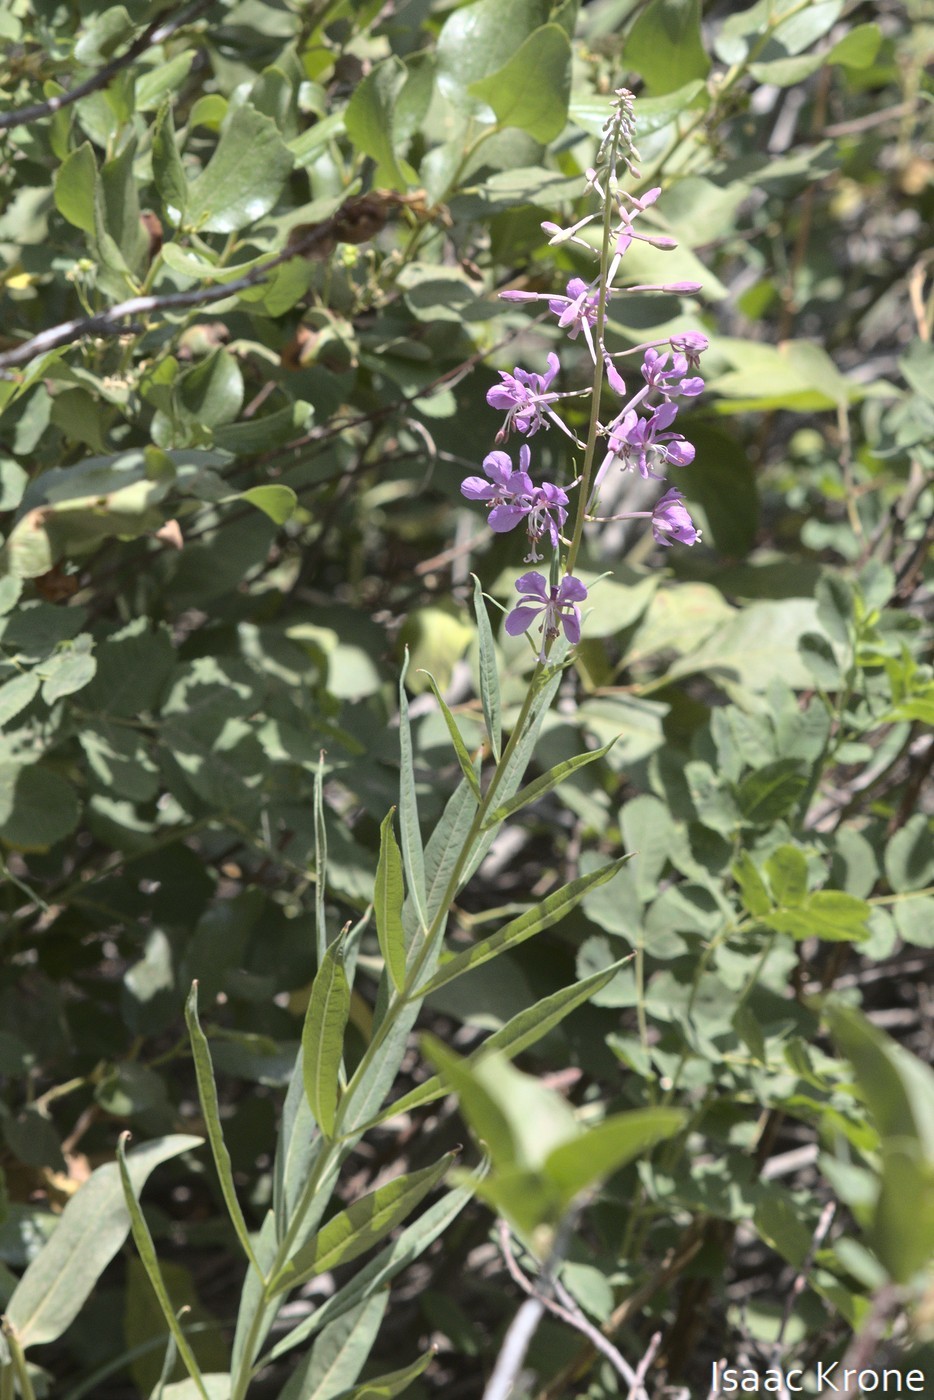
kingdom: Plantae
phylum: Tracheophyta
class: Magnoliopsida
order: Myrtales
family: Onagraceae
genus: Chamaenerion
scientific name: Chamaenerion angustifolium
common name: Fireweed
